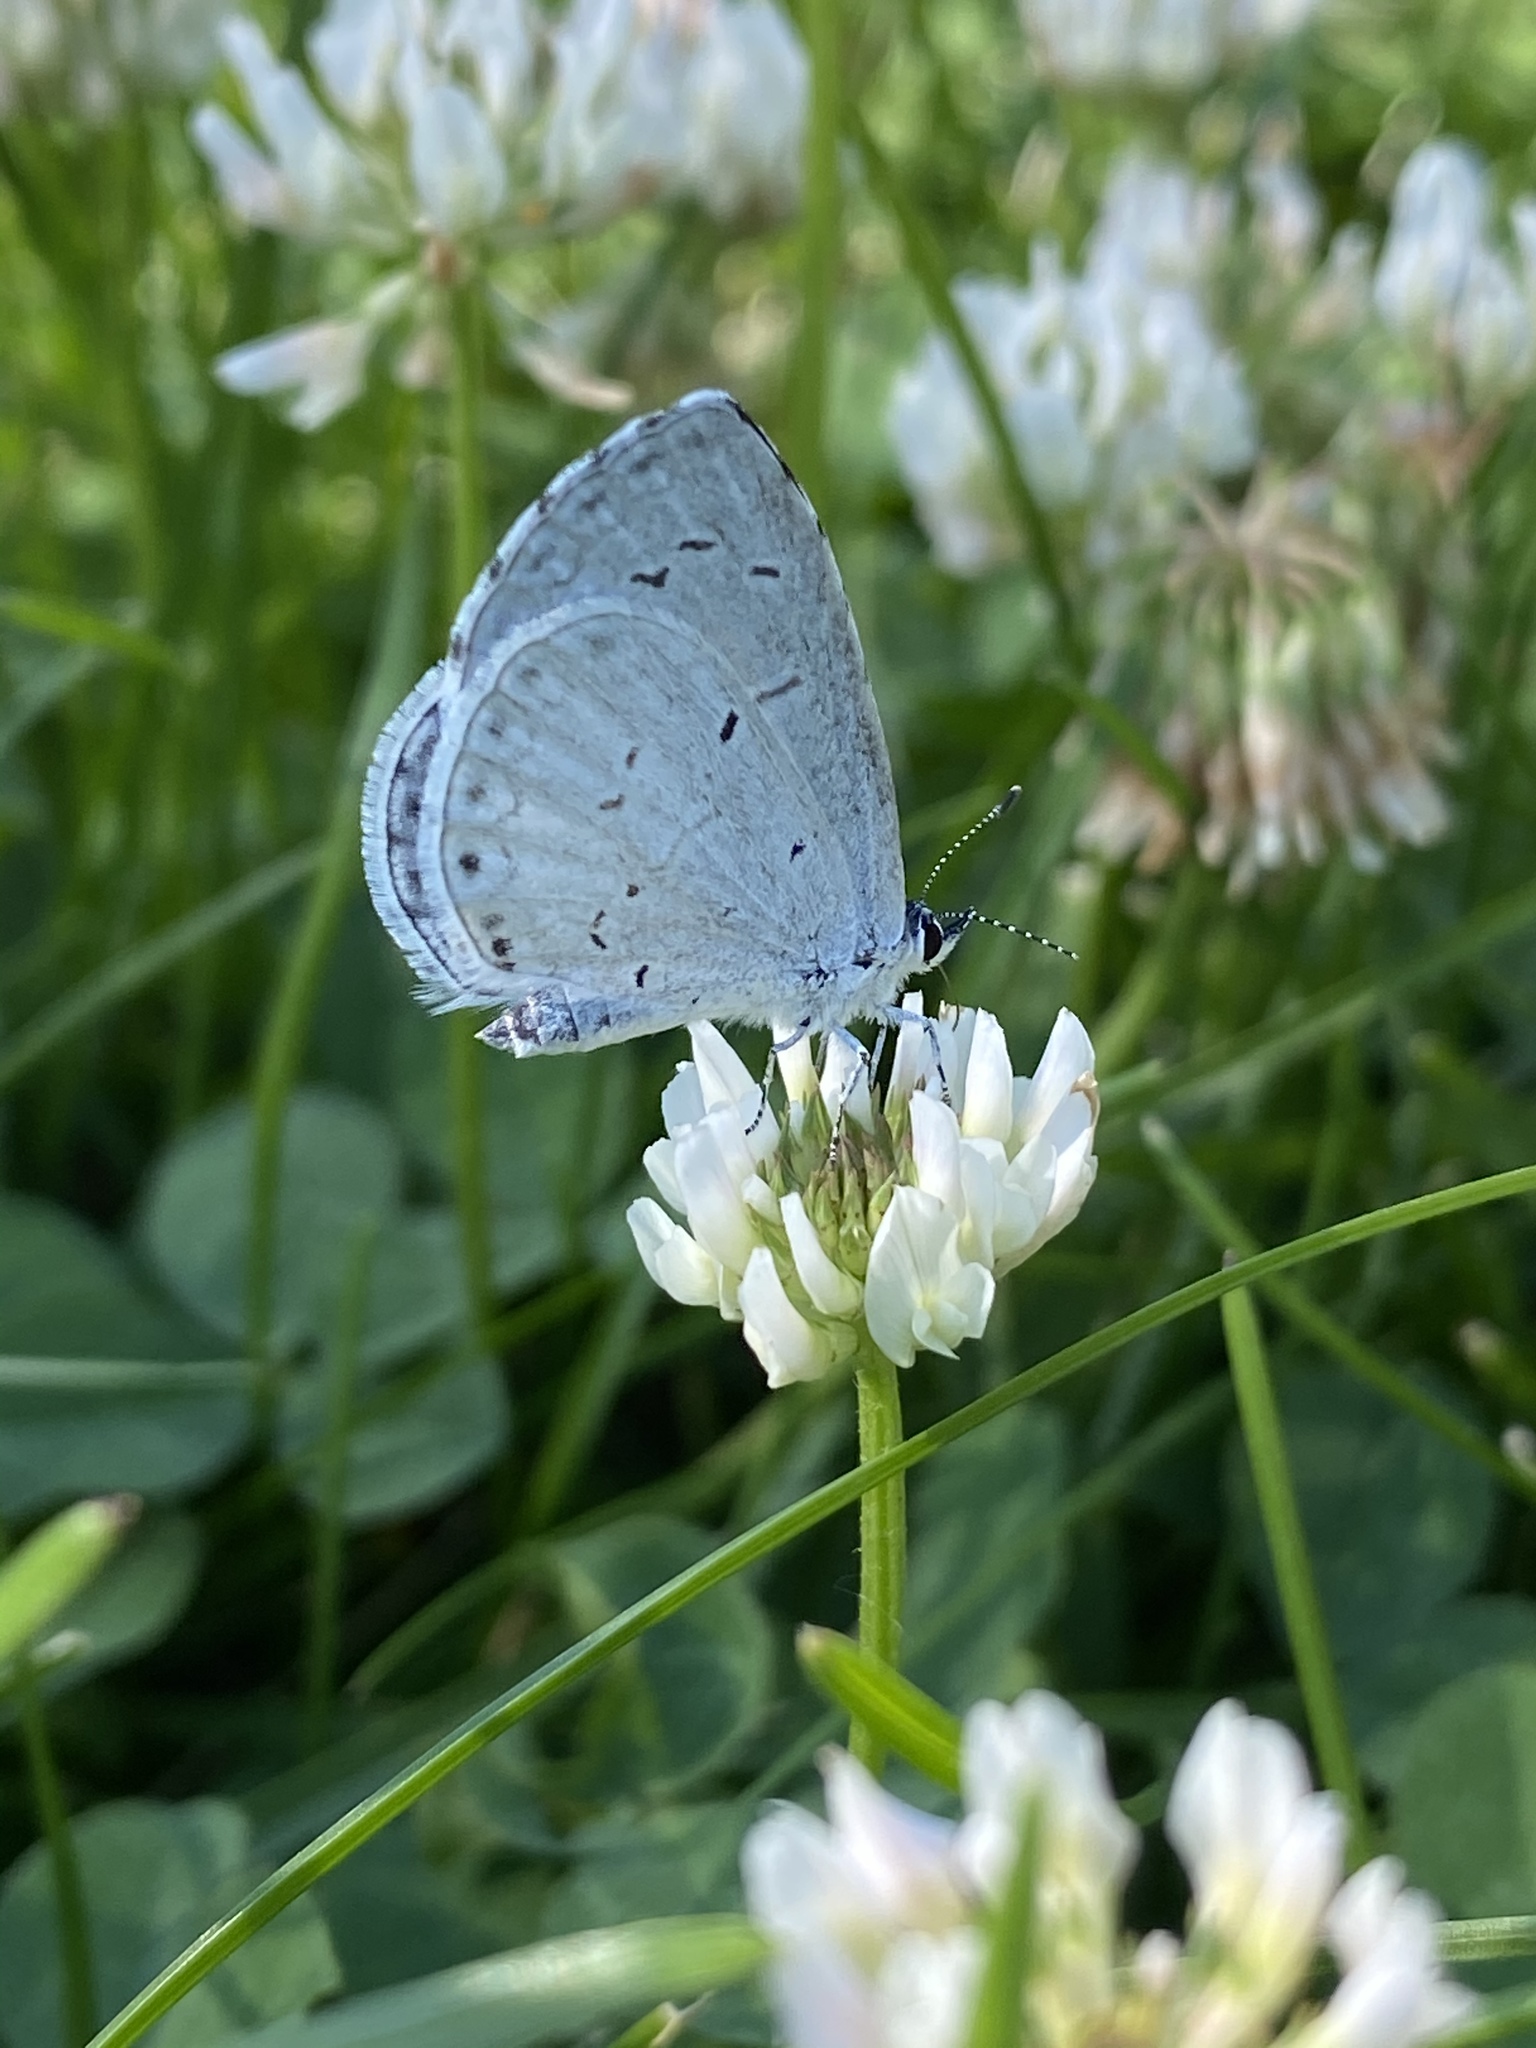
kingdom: Animalia
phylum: Arthropoda
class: Insecta
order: Lepidoptera
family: Lycaenidae
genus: Cyaniris
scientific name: Cyaniris neglecta
